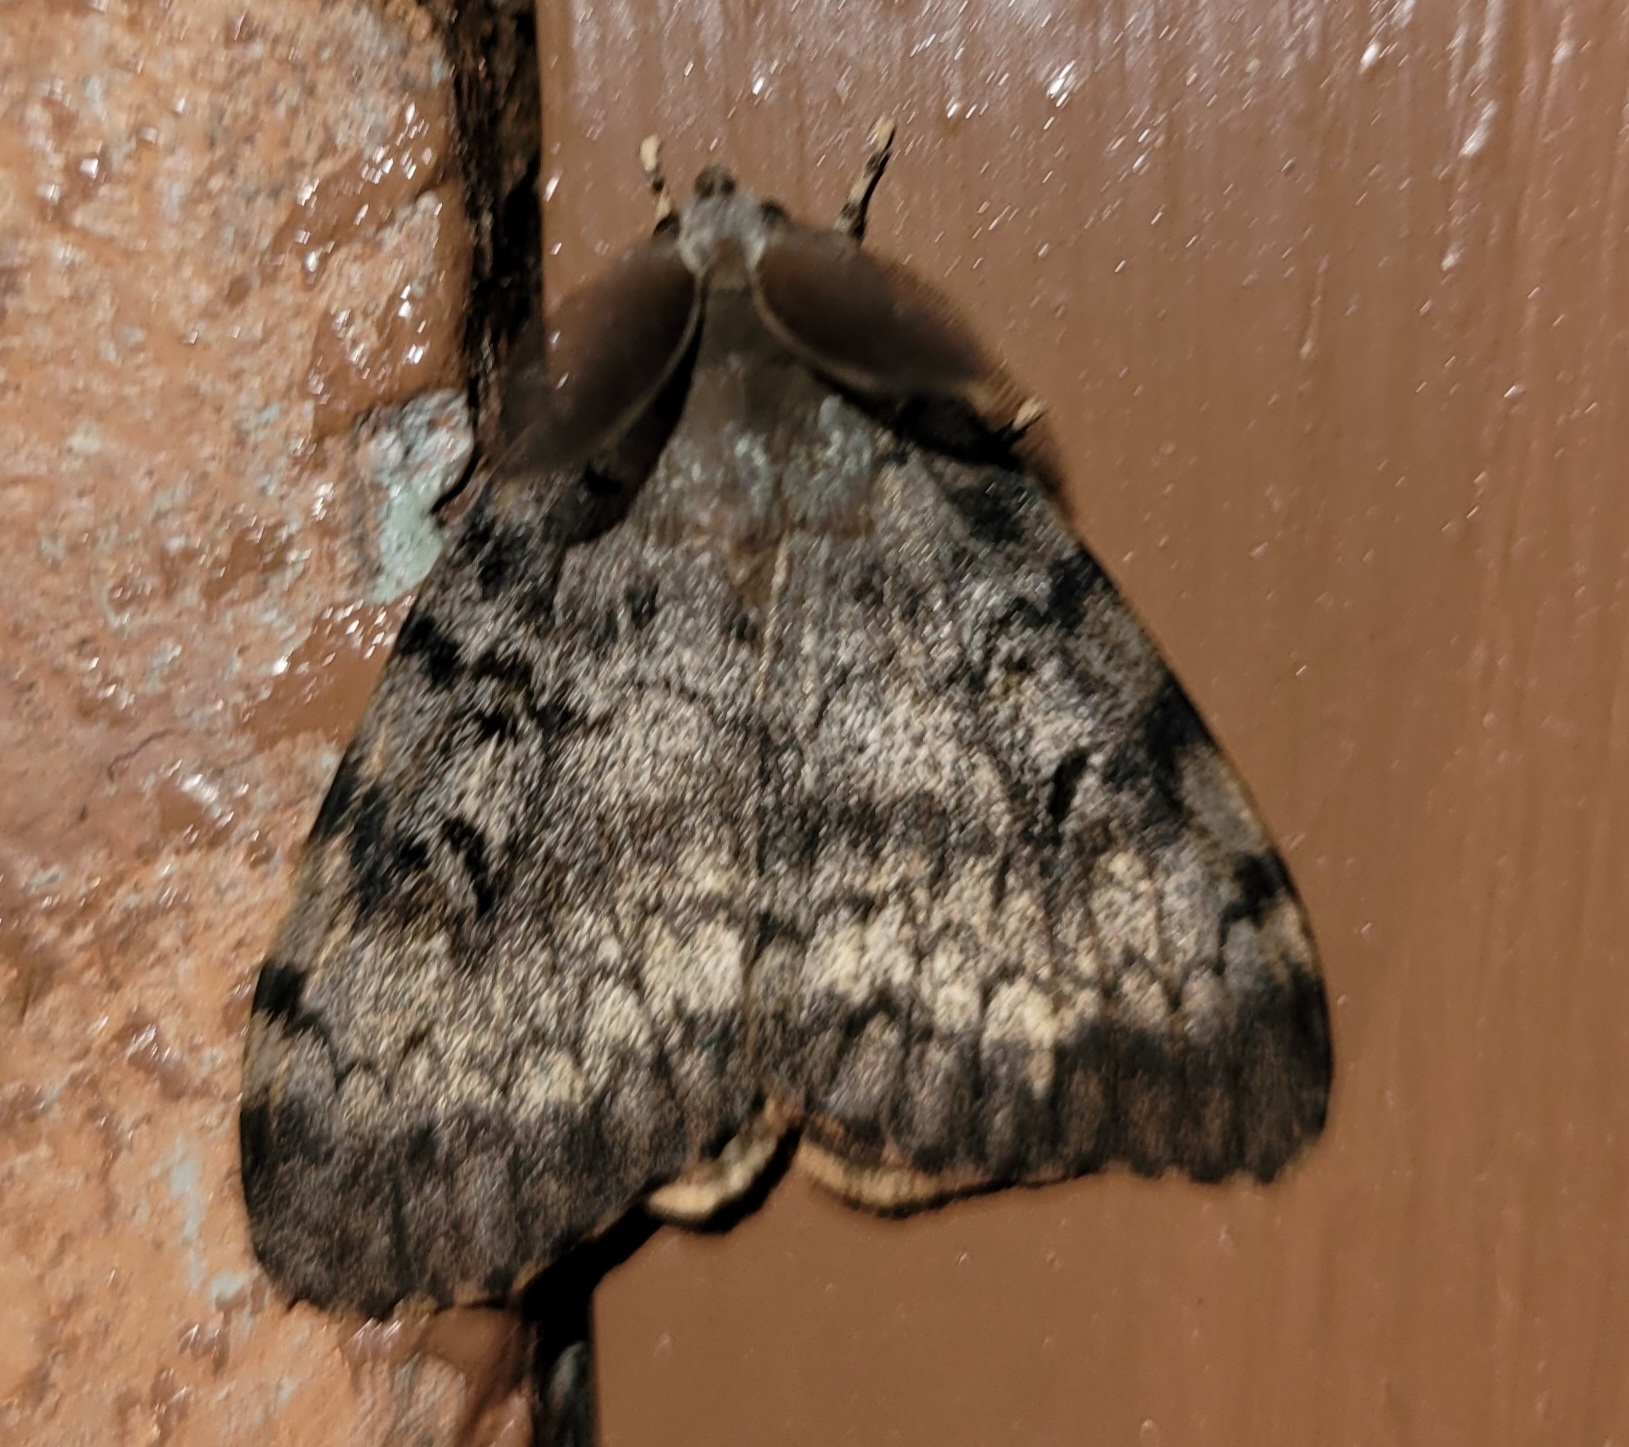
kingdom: Animalia
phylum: Arthropoda
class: Insecta
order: Lepidoptera
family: Erebidae
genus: Lymantria
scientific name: Lymantria dispar
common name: Gypsy moth
